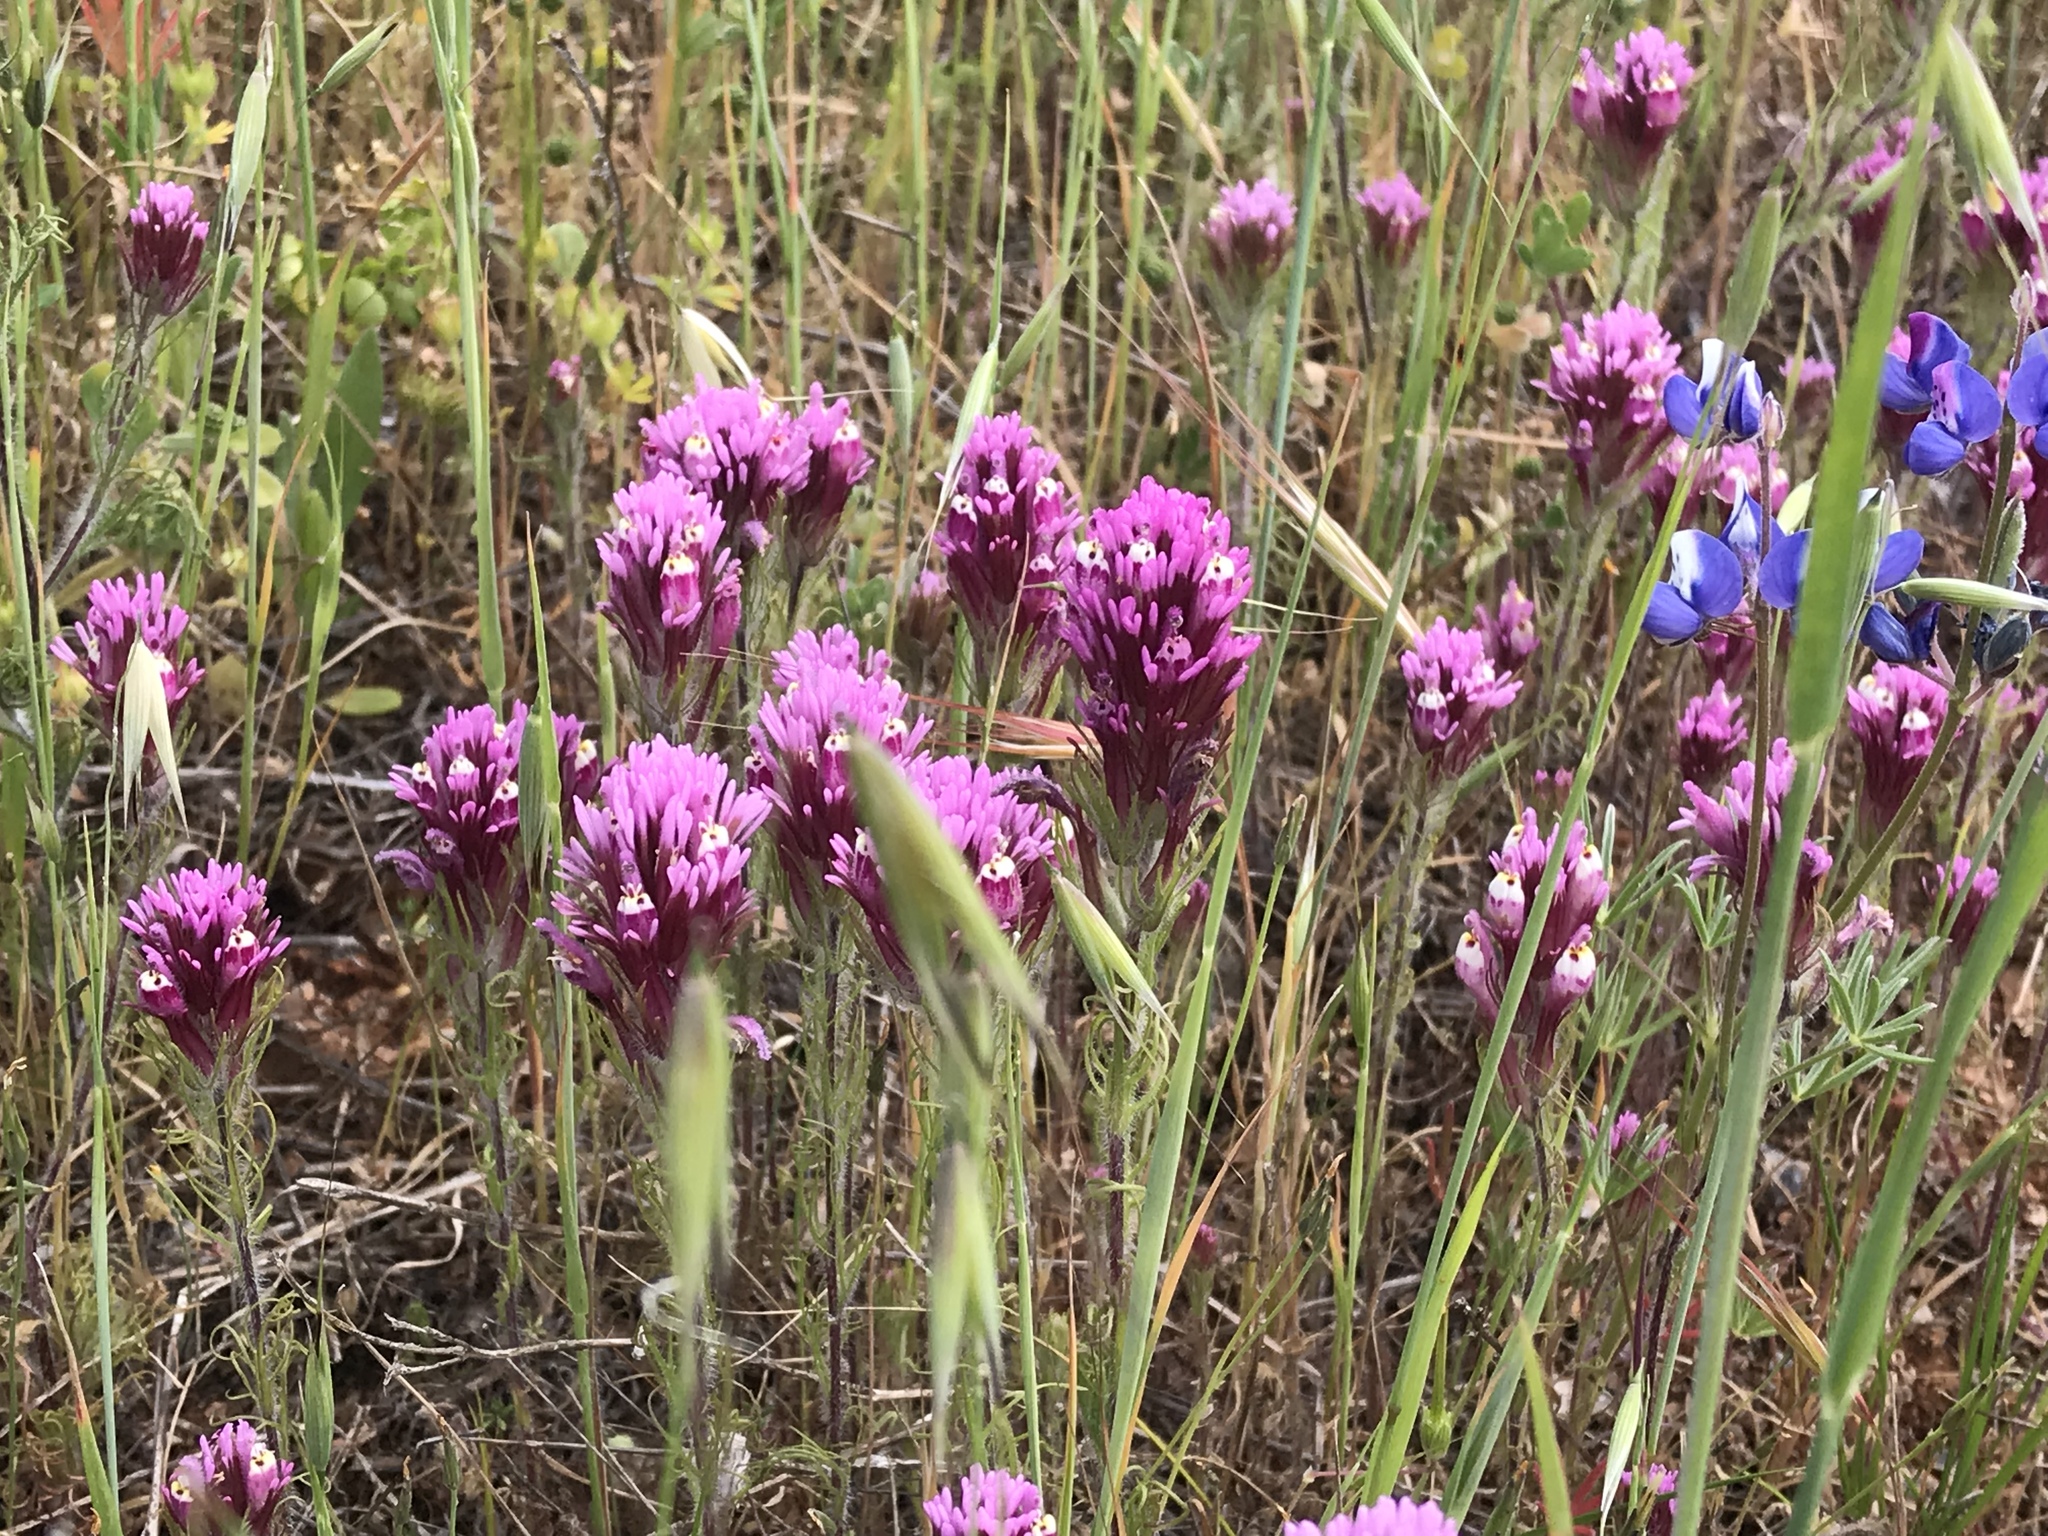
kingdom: Plantae
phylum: Tracheophyta
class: Magnoliopsida
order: Lamiales
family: Orobanchaceae
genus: Castilleja
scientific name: Castilleja exserta
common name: Purple owl-clover
